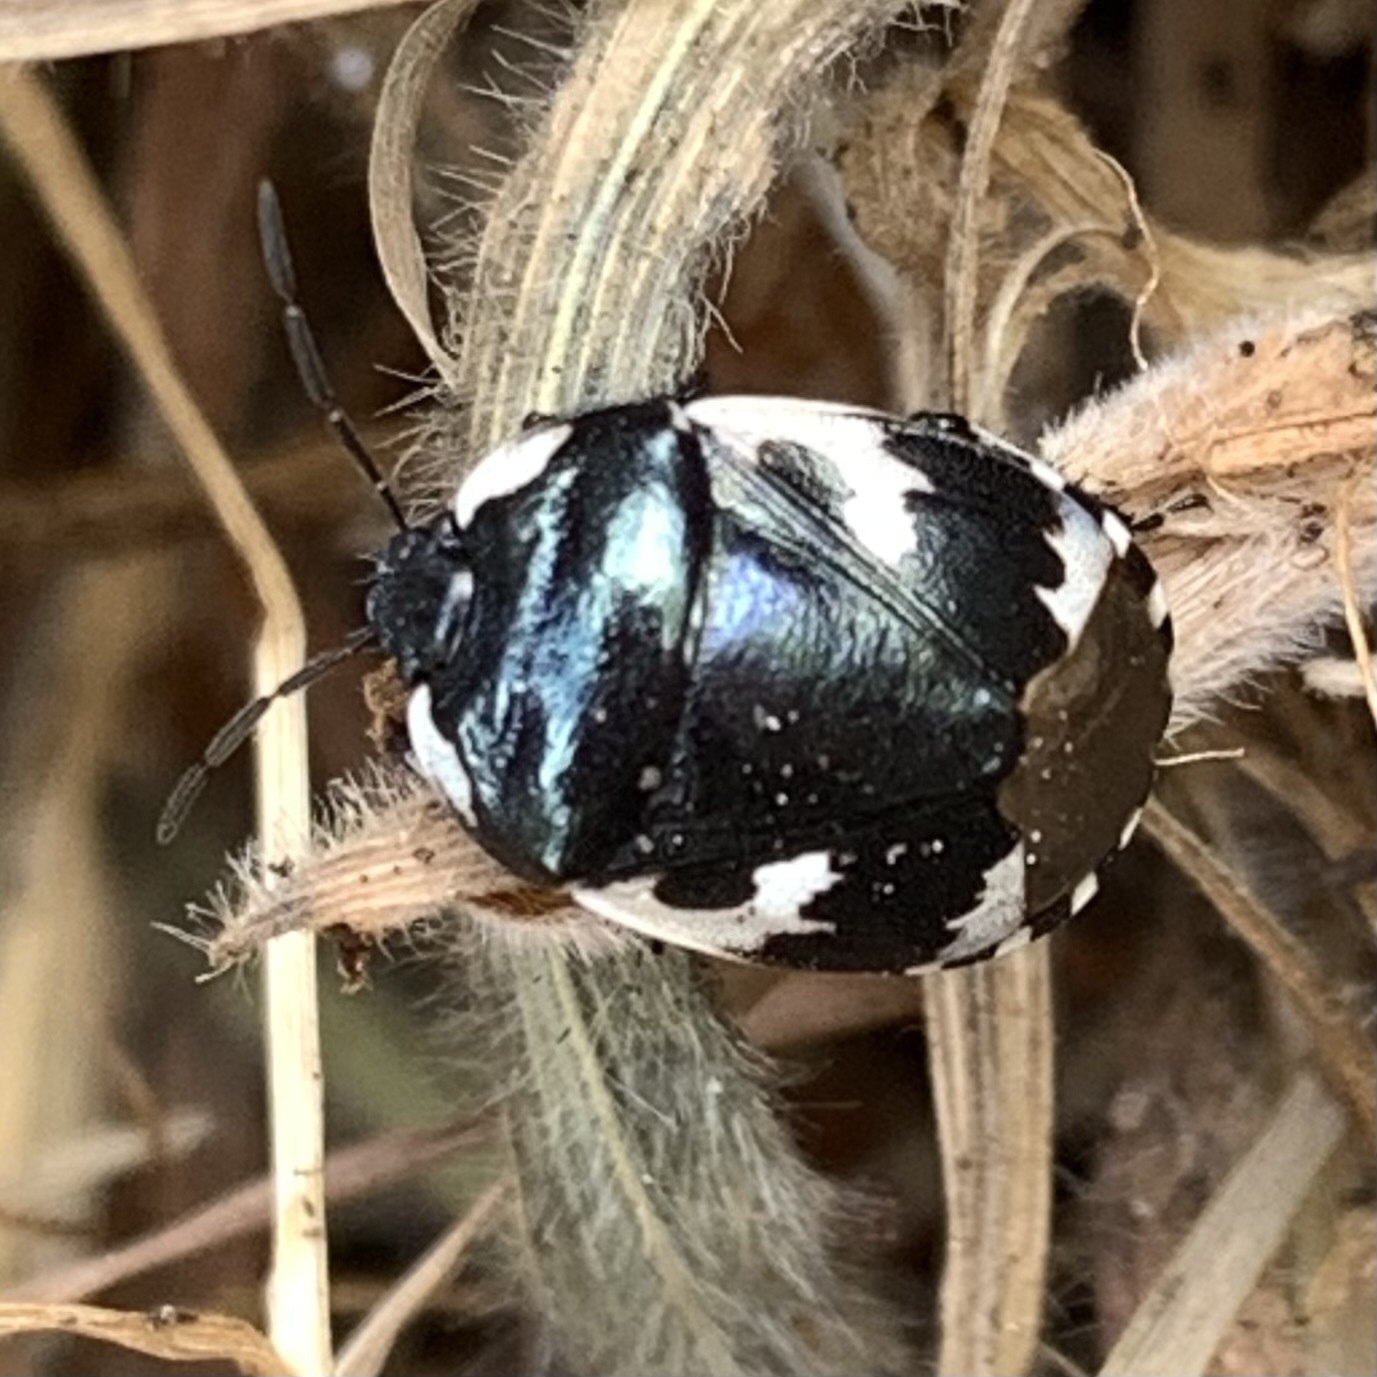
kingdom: Animalia
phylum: Arthropoda
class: Insecta
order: Hemiptera
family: Cydnidae
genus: Tritomegas
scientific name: Tritomegas bicolor
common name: Pied shieldbug
